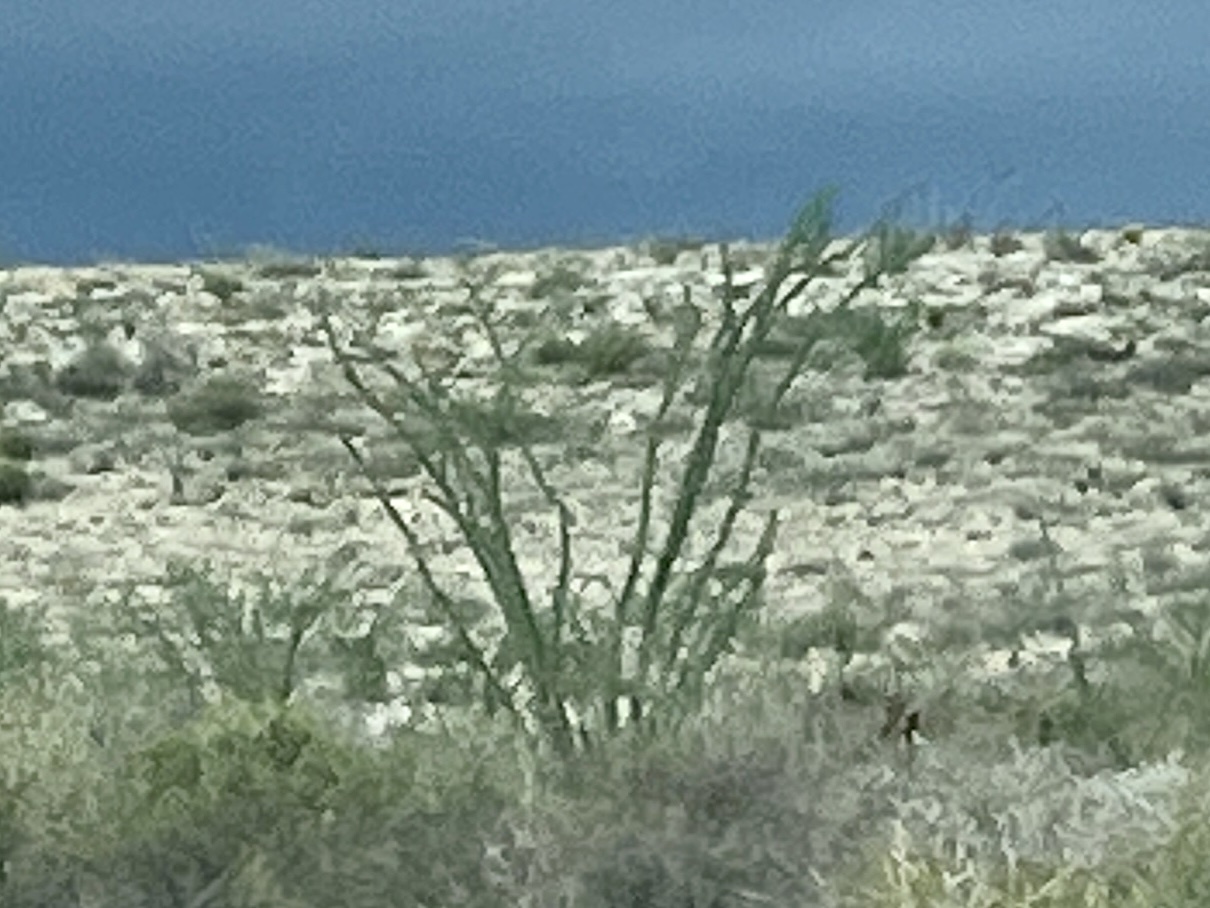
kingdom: Plantae
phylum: Tracheophyta
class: Magnoliopsida
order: Ericales
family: Fouquieriaceae
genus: Fouquieria
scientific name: Fouquieria splendens
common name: Vine-cactus
